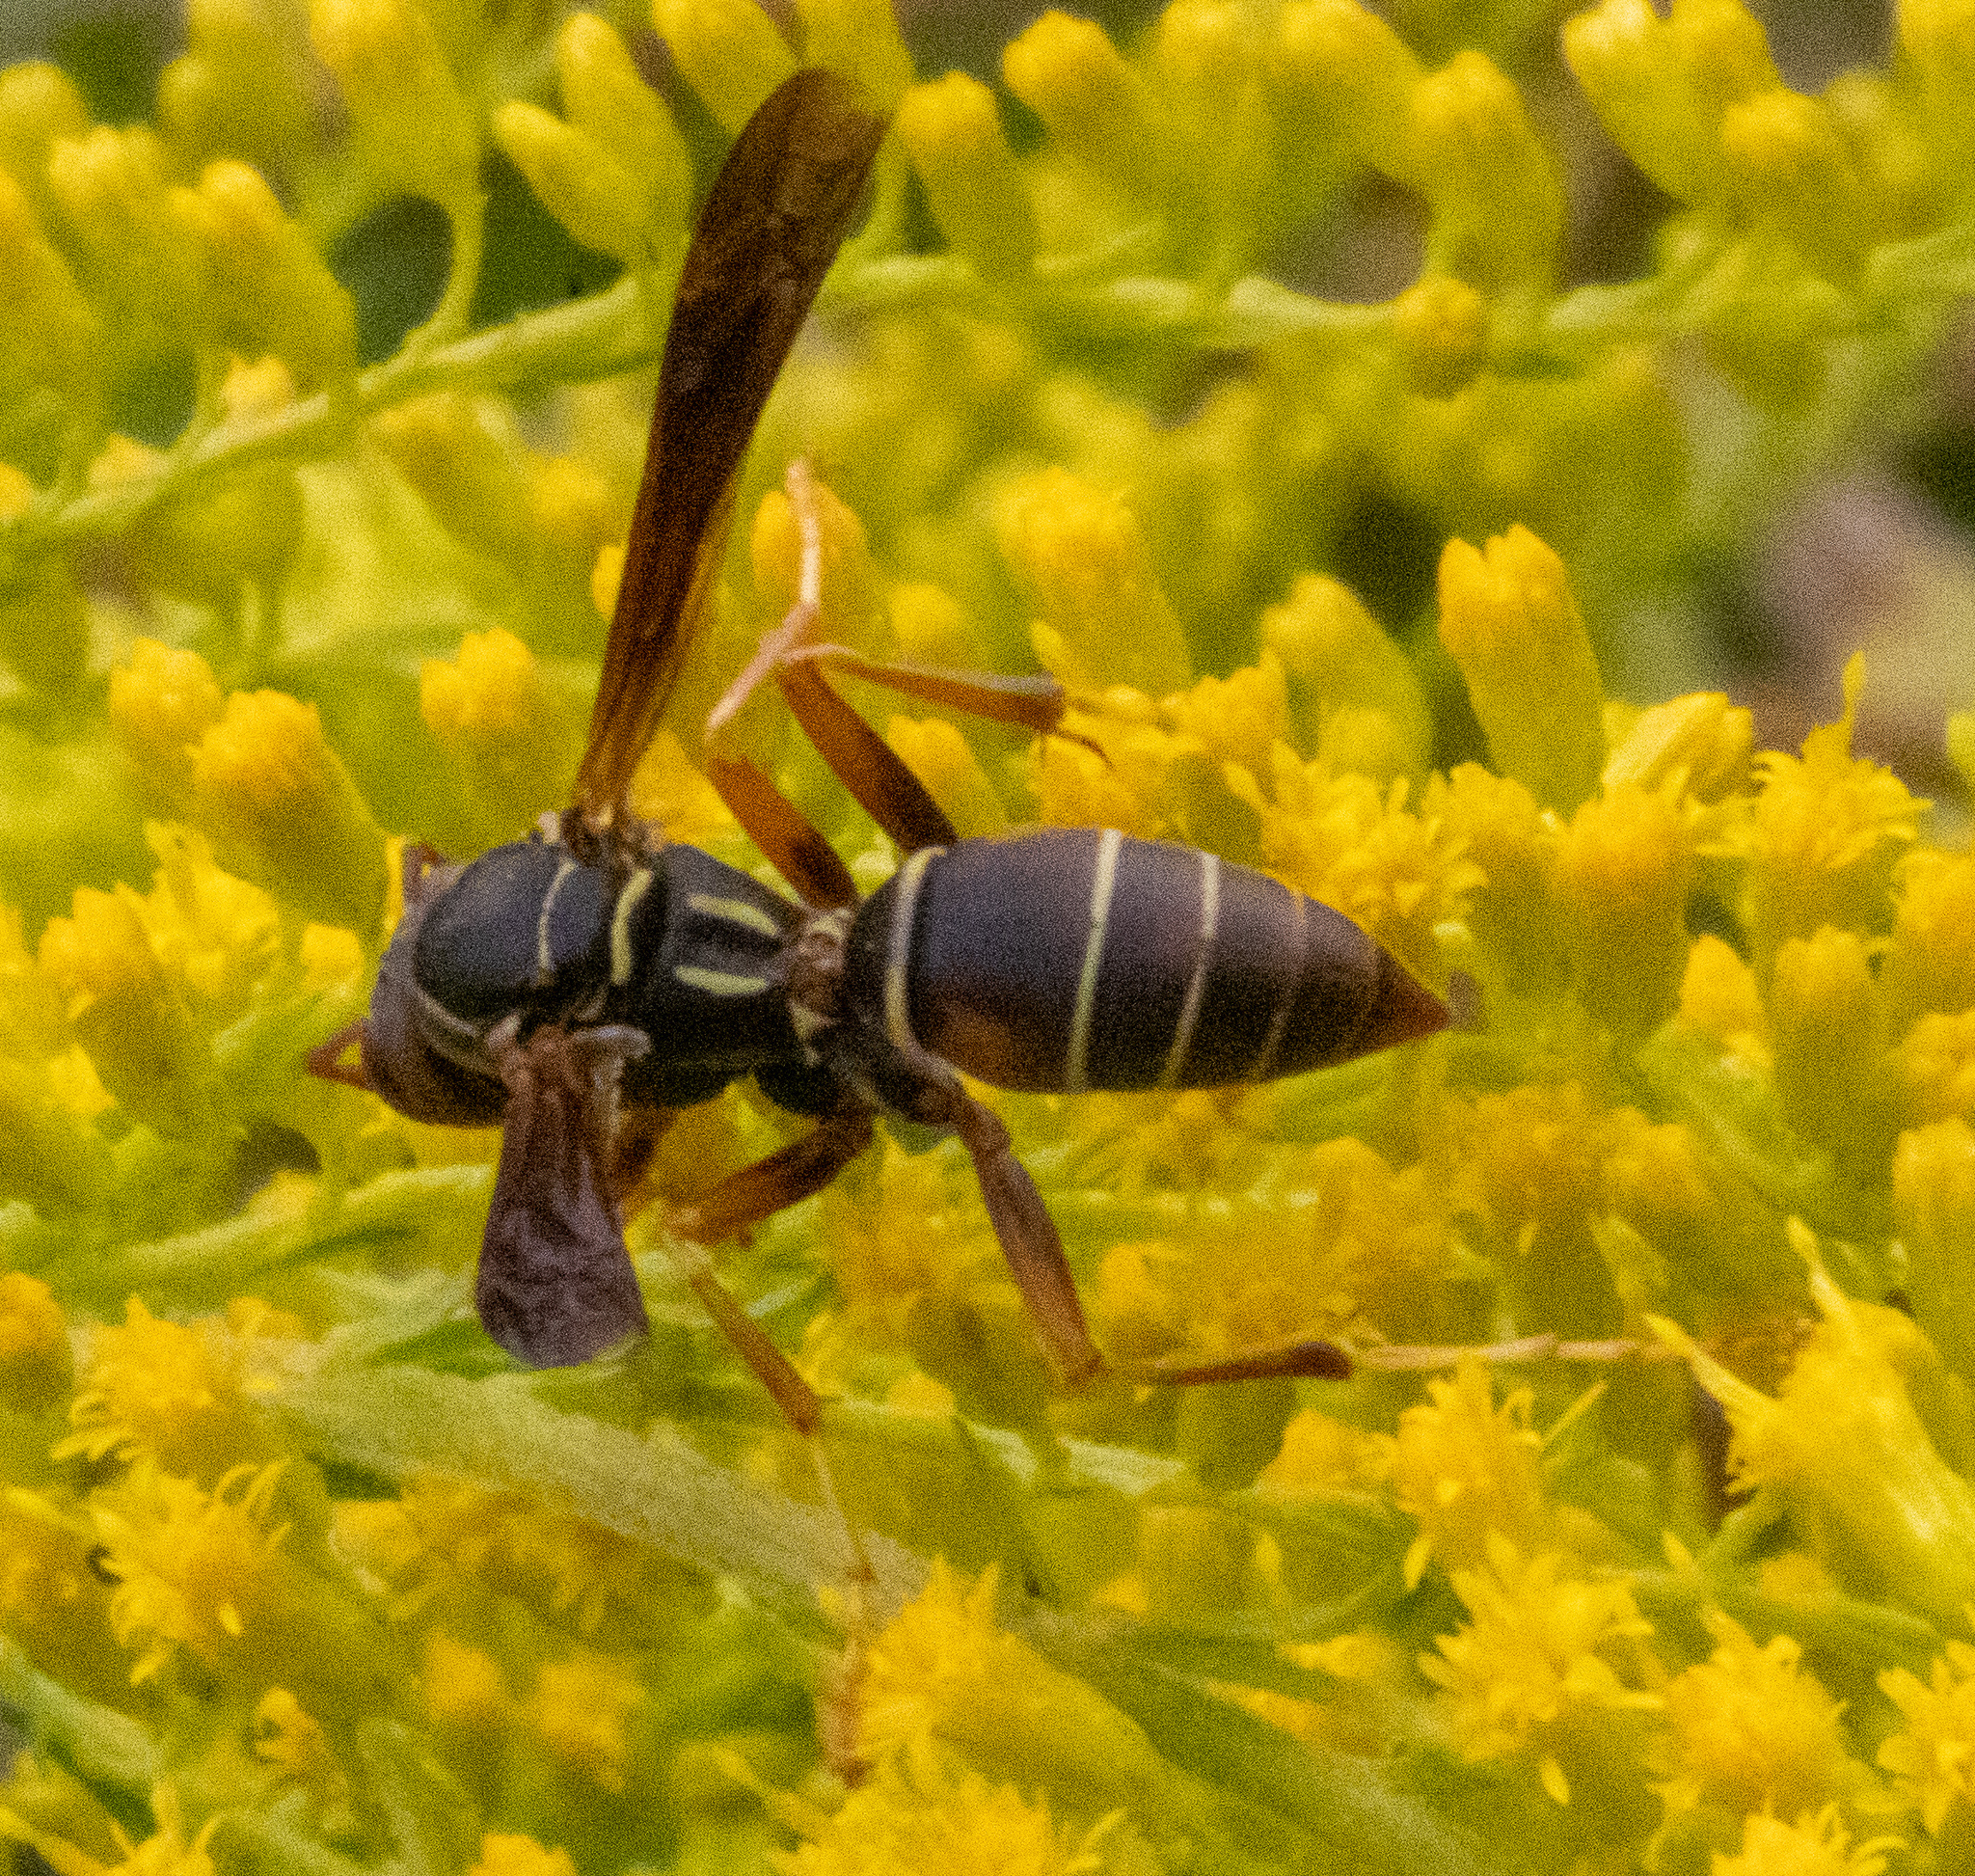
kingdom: Animalia
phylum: Arthropoda
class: Insecta
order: Hymenoptera
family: Eumenidae
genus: Polistes
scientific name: Polistes fuscatus
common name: Dark paper wasp
